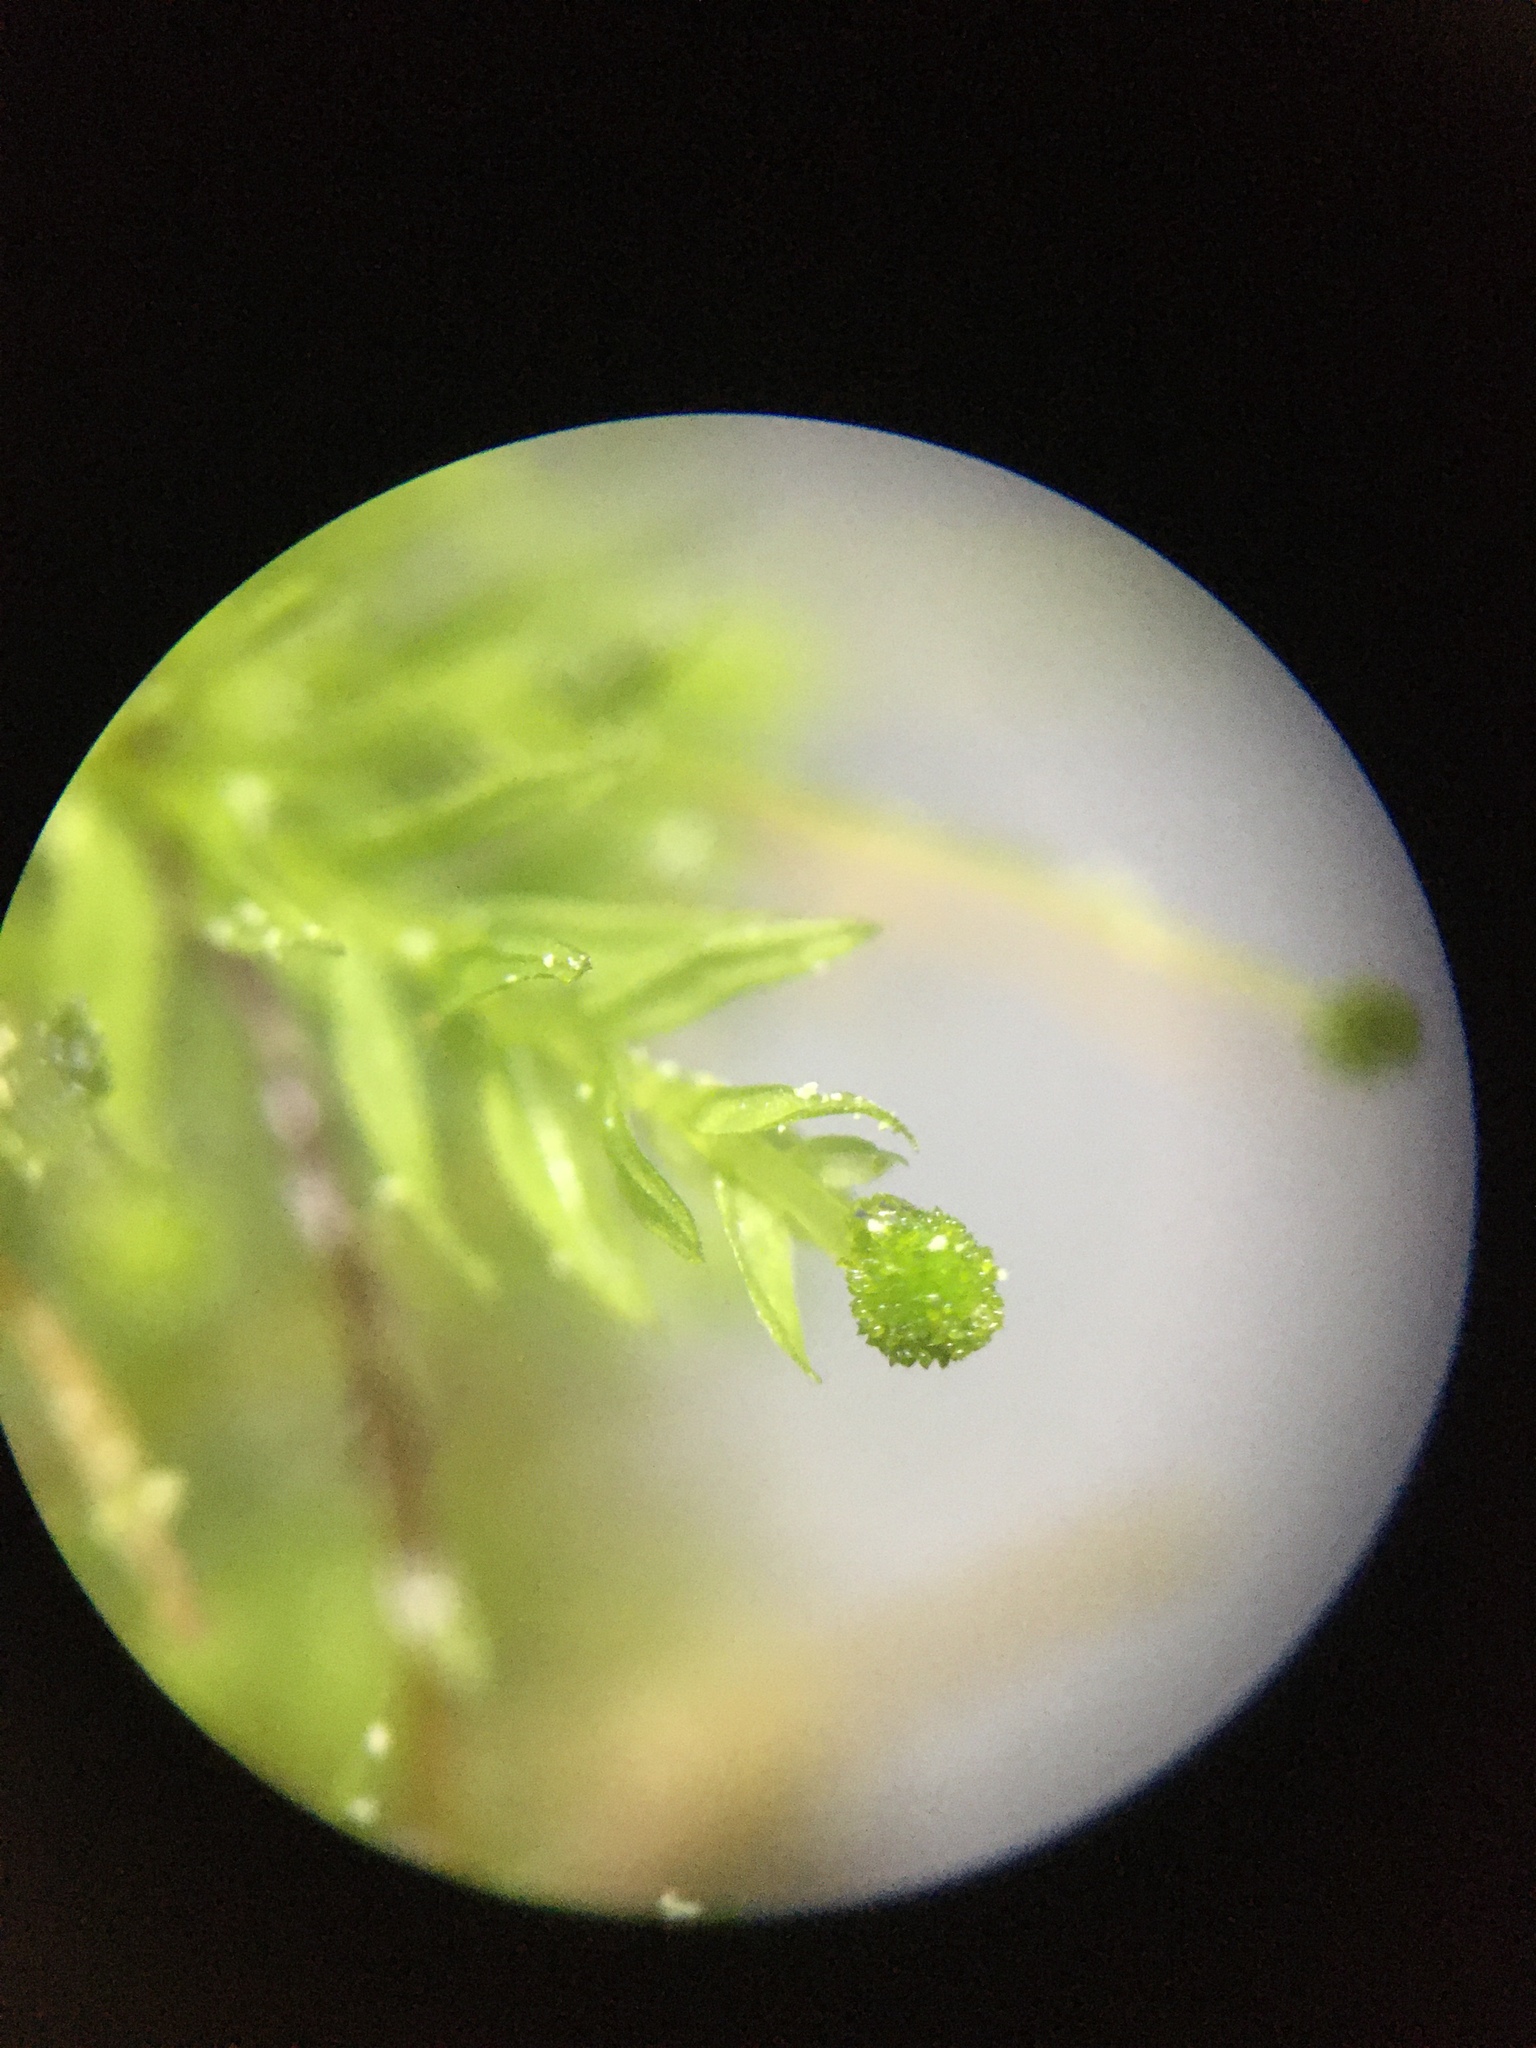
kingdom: Plantae
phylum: Bryophyta
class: Bryopsida
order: Aulacomniales
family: Aulacomniaceae
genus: Aulacomnium
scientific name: Aulacomnium androgynum
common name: Little groove moss
